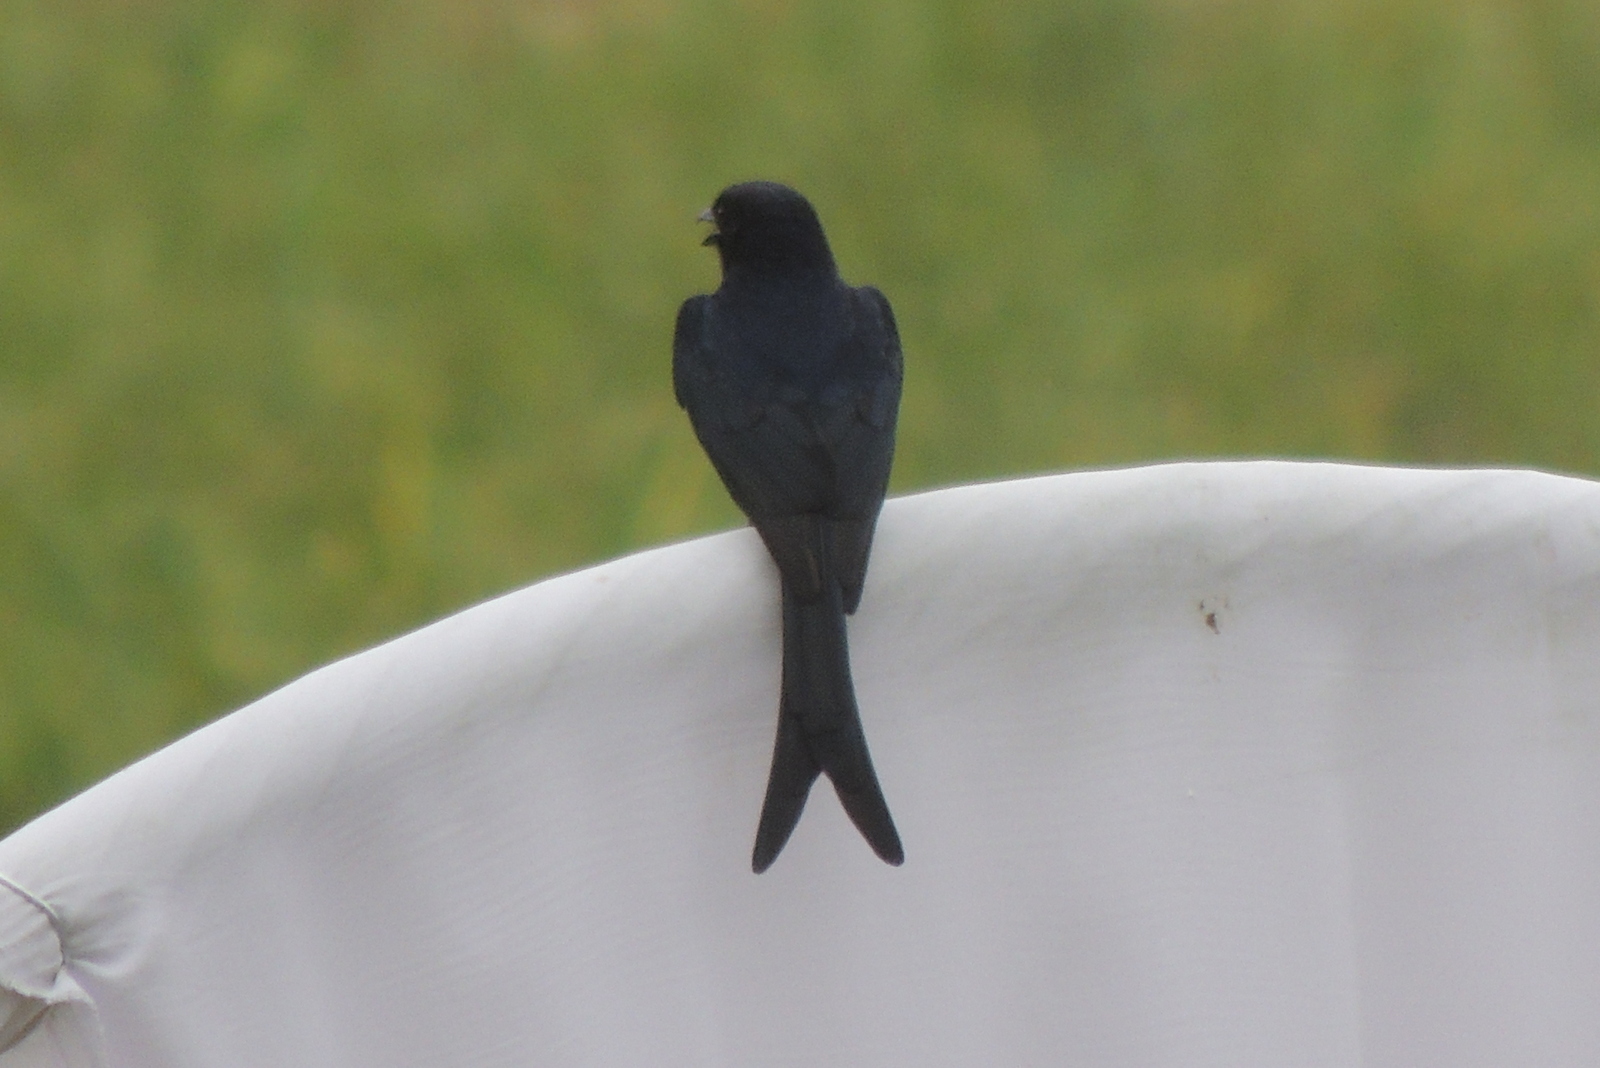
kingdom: Animalia
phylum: Chordata
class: Aves
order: Passeriformes
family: Dicruridae
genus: Dicrurus
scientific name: Dicrurus macrocercus
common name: Black drongo
